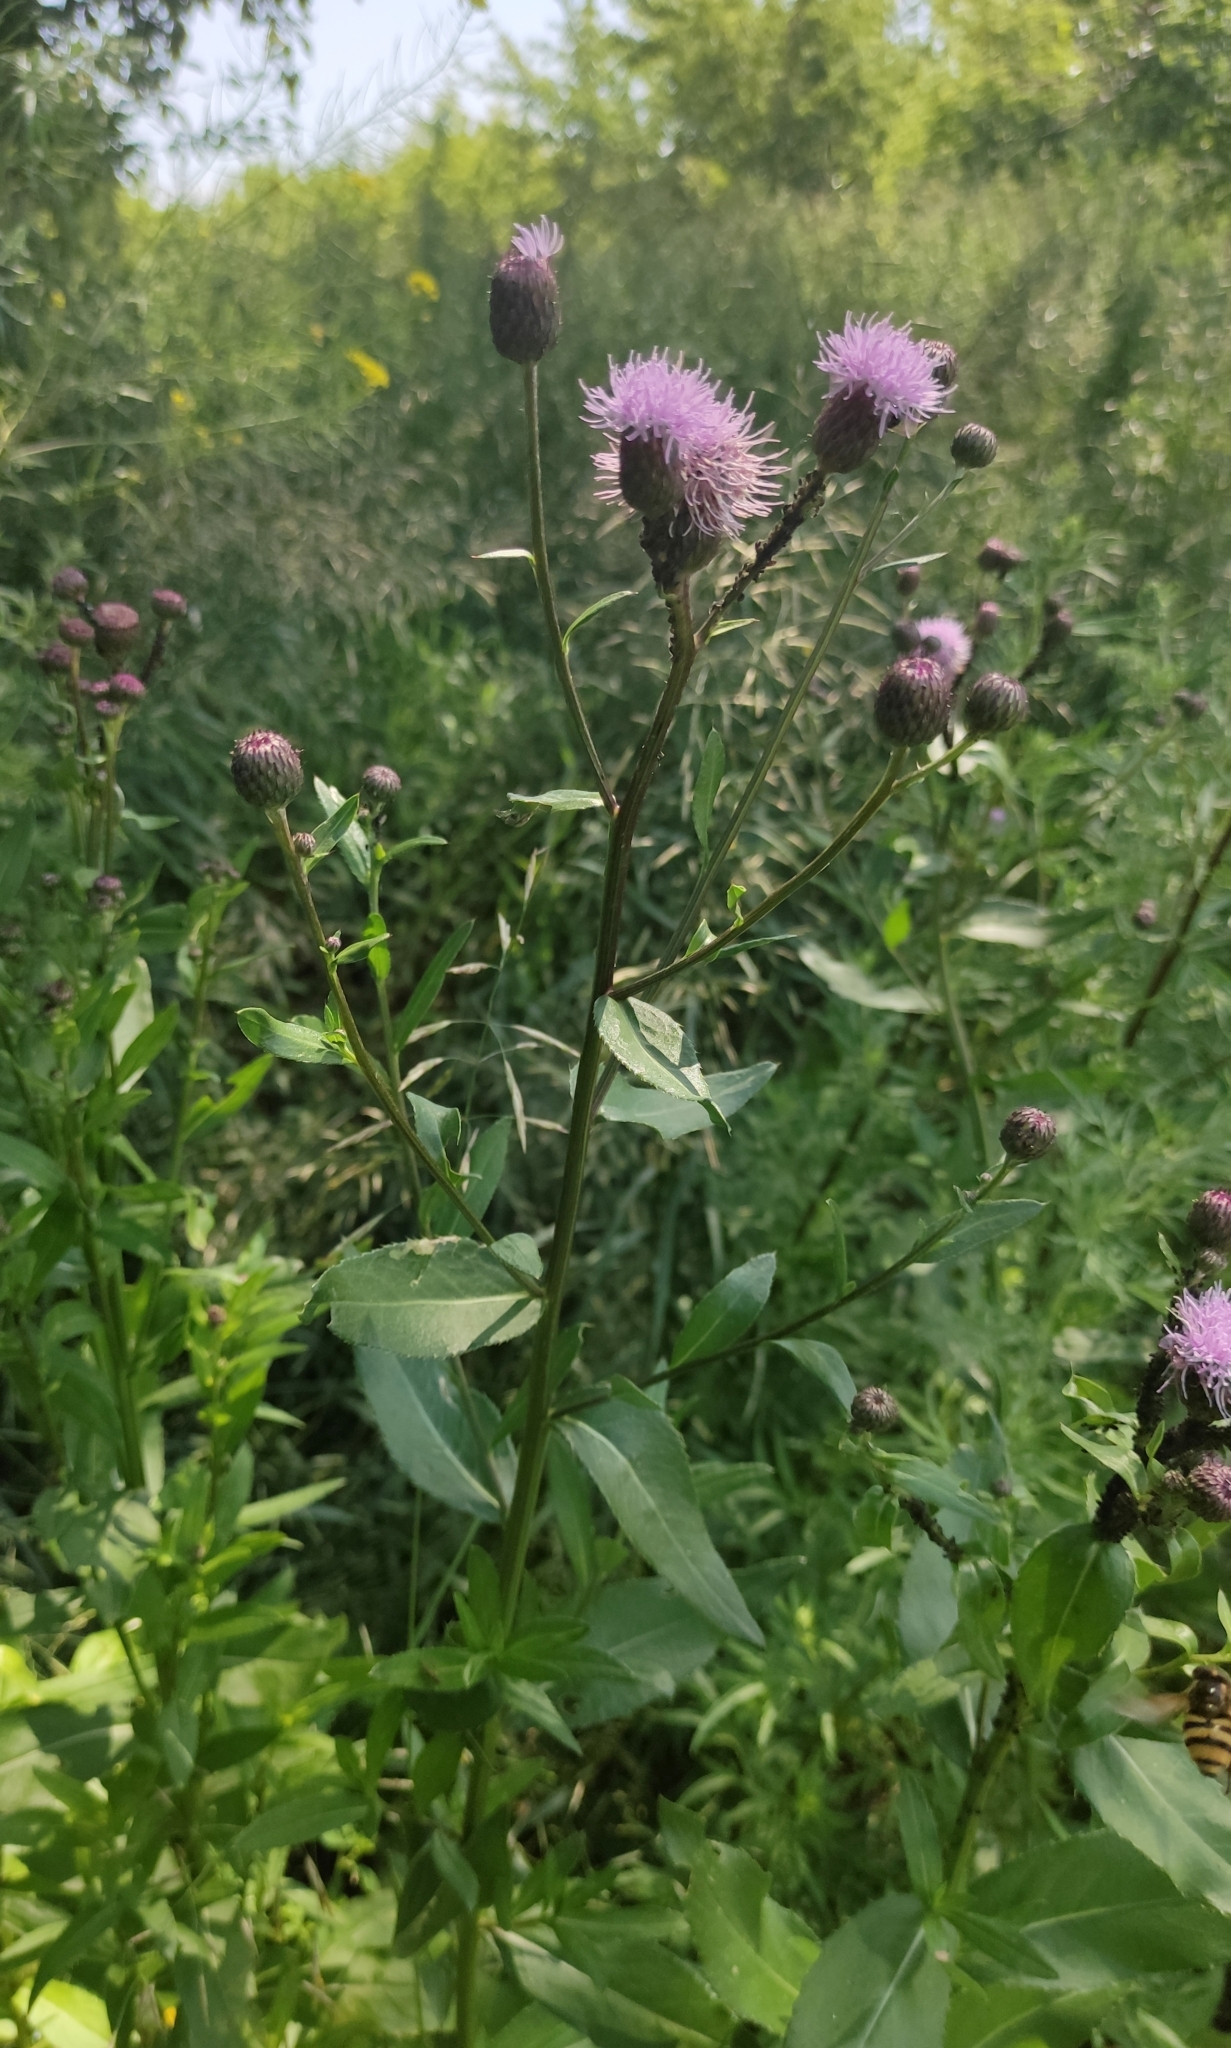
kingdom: Plantae
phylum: Tracheophyta
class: Magnoliopsida
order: Asterales
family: Asteraceae
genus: Cirsium
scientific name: Cirsium arvense
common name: Creeping thistle
